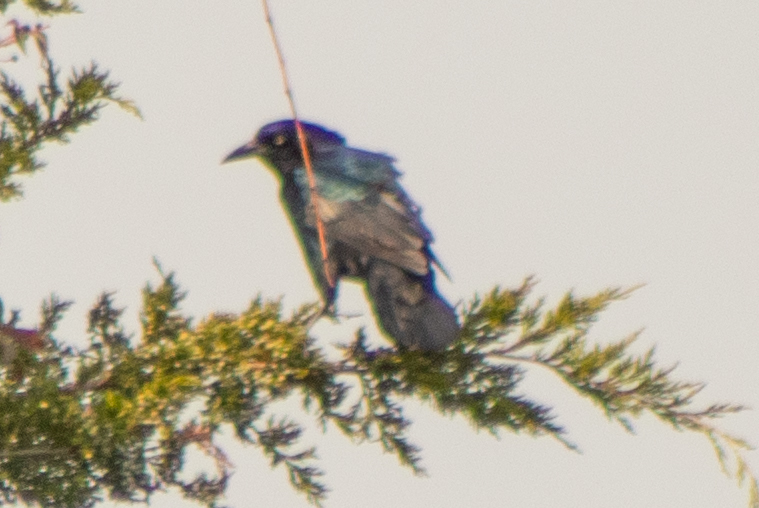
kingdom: Animalia
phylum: Chordata
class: Aves
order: Passeriformes
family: Icteridae
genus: Quiscalus
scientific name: Quiscalus major
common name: Boat-tailed grackle
